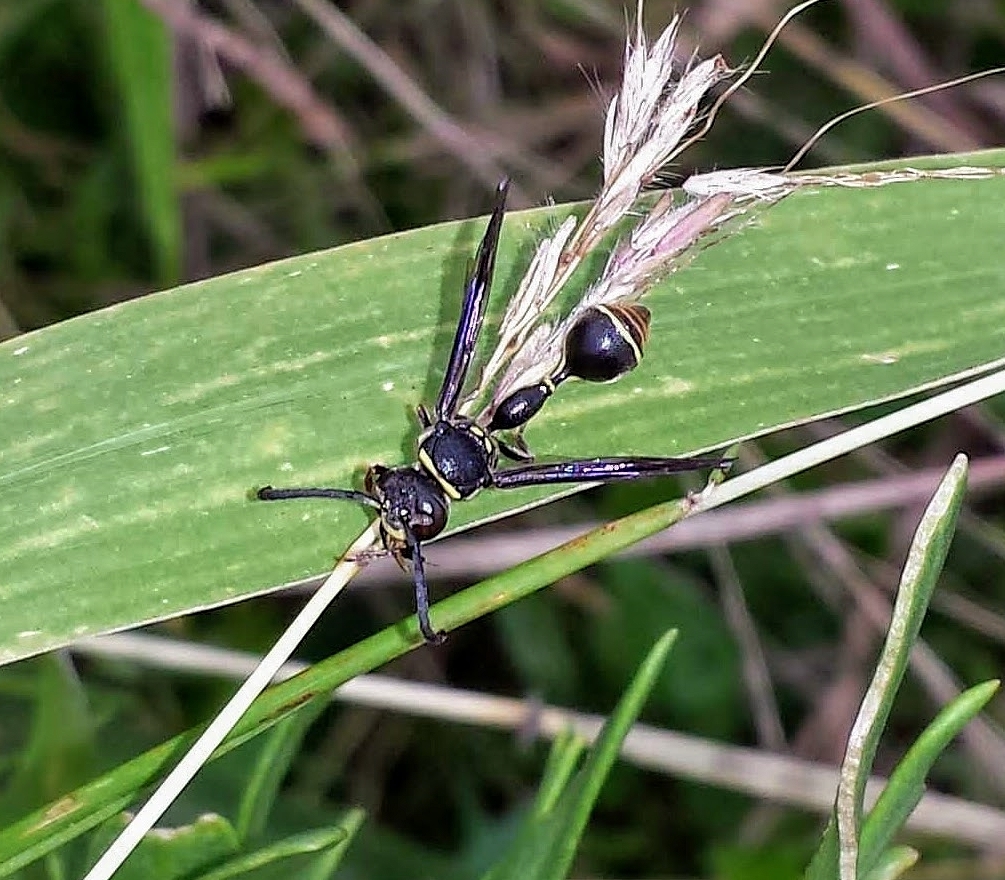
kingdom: Animalia
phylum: Arthropoda
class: Insecta
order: Hymenoptera
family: Eumenidae
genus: Zethus
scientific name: Zethus miscogaster
